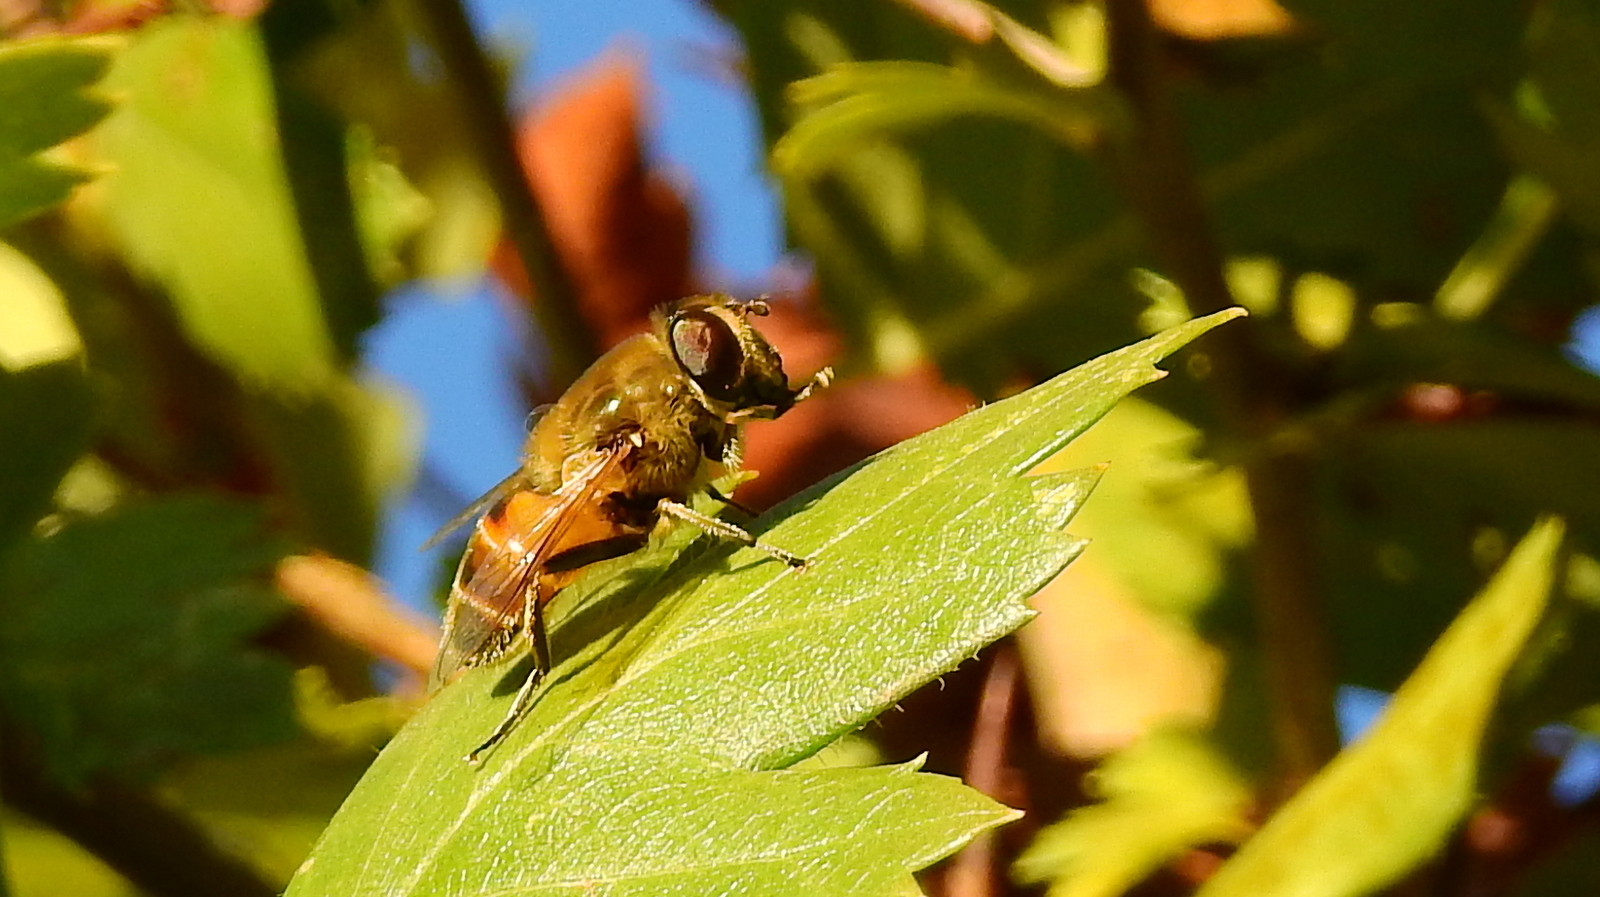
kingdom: Animalia
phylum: Arthropoda
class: Insecta
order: Diptera
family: Syrphidae
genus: Eristalis
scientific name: Eristalis tenax
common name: Drone fly
